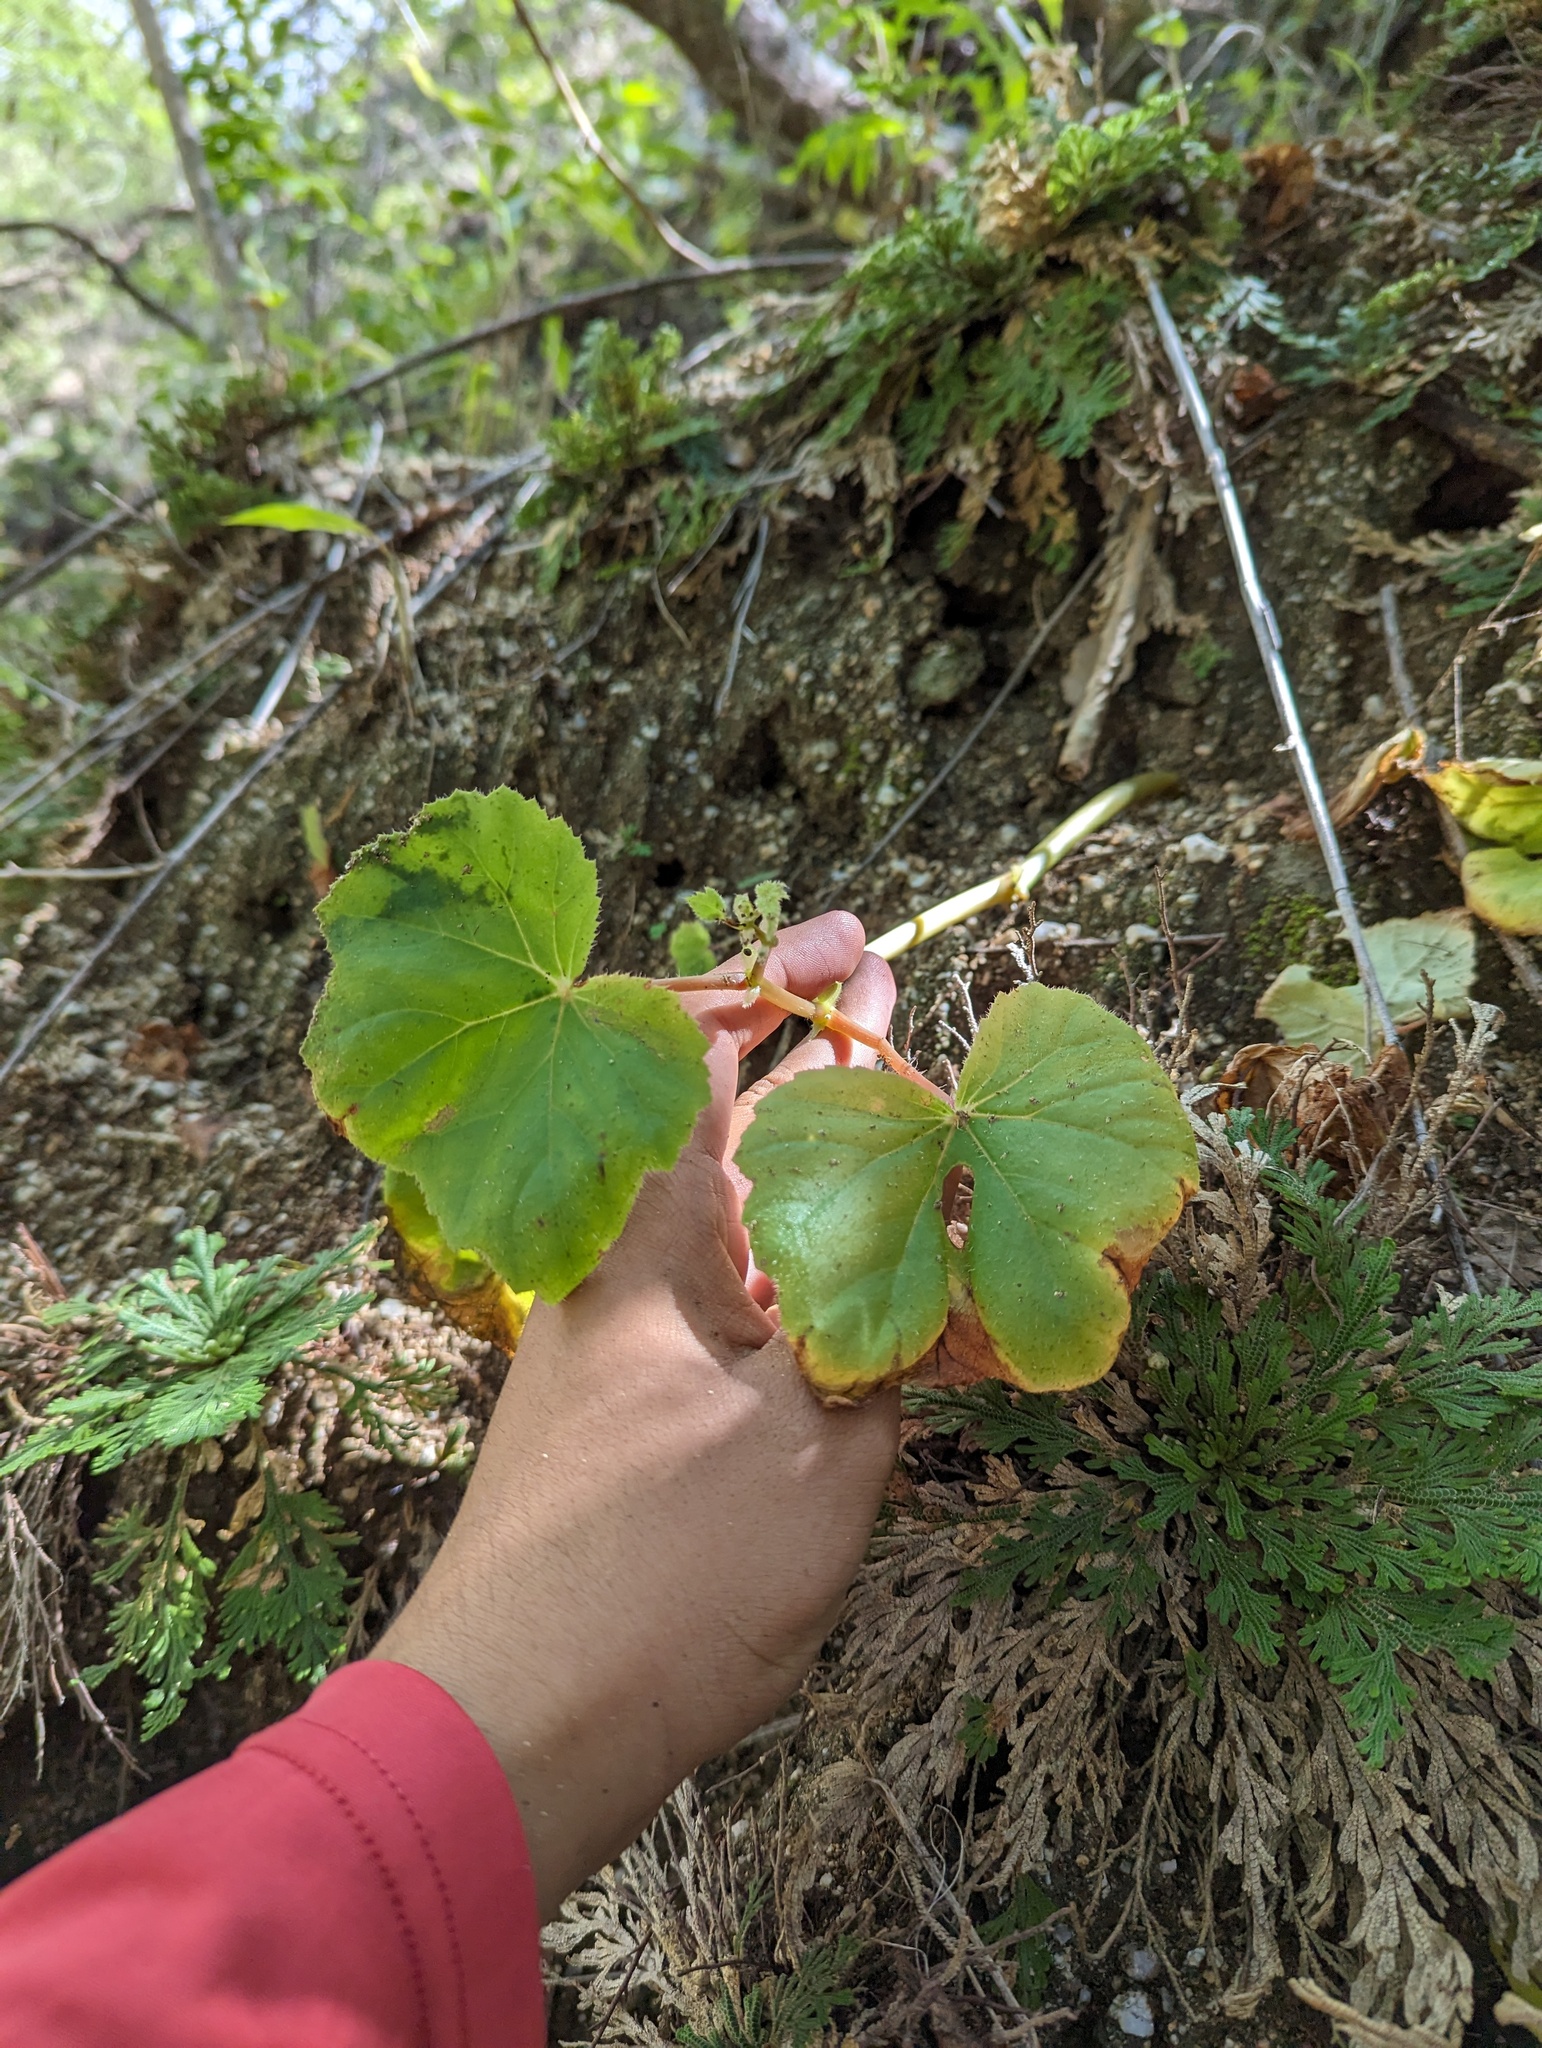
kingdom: Plantae
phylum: Tracheophyta
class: Magnoliopsida
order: Cucurbitales
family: Begoniaceae
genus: Begonia
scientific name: Begonia palmeri
